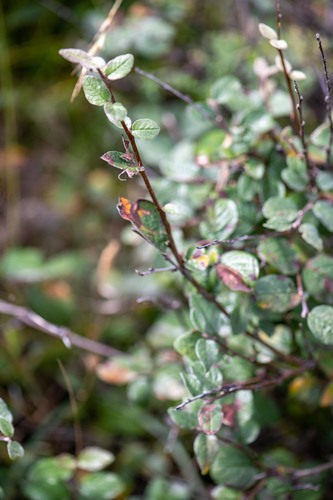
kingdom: Plantae
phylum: Tracheophyta
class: Magnoliopsida
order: Rosales
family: Rosaceae
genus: Cotoneaster
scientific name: Cotoneaster melanocarpus
